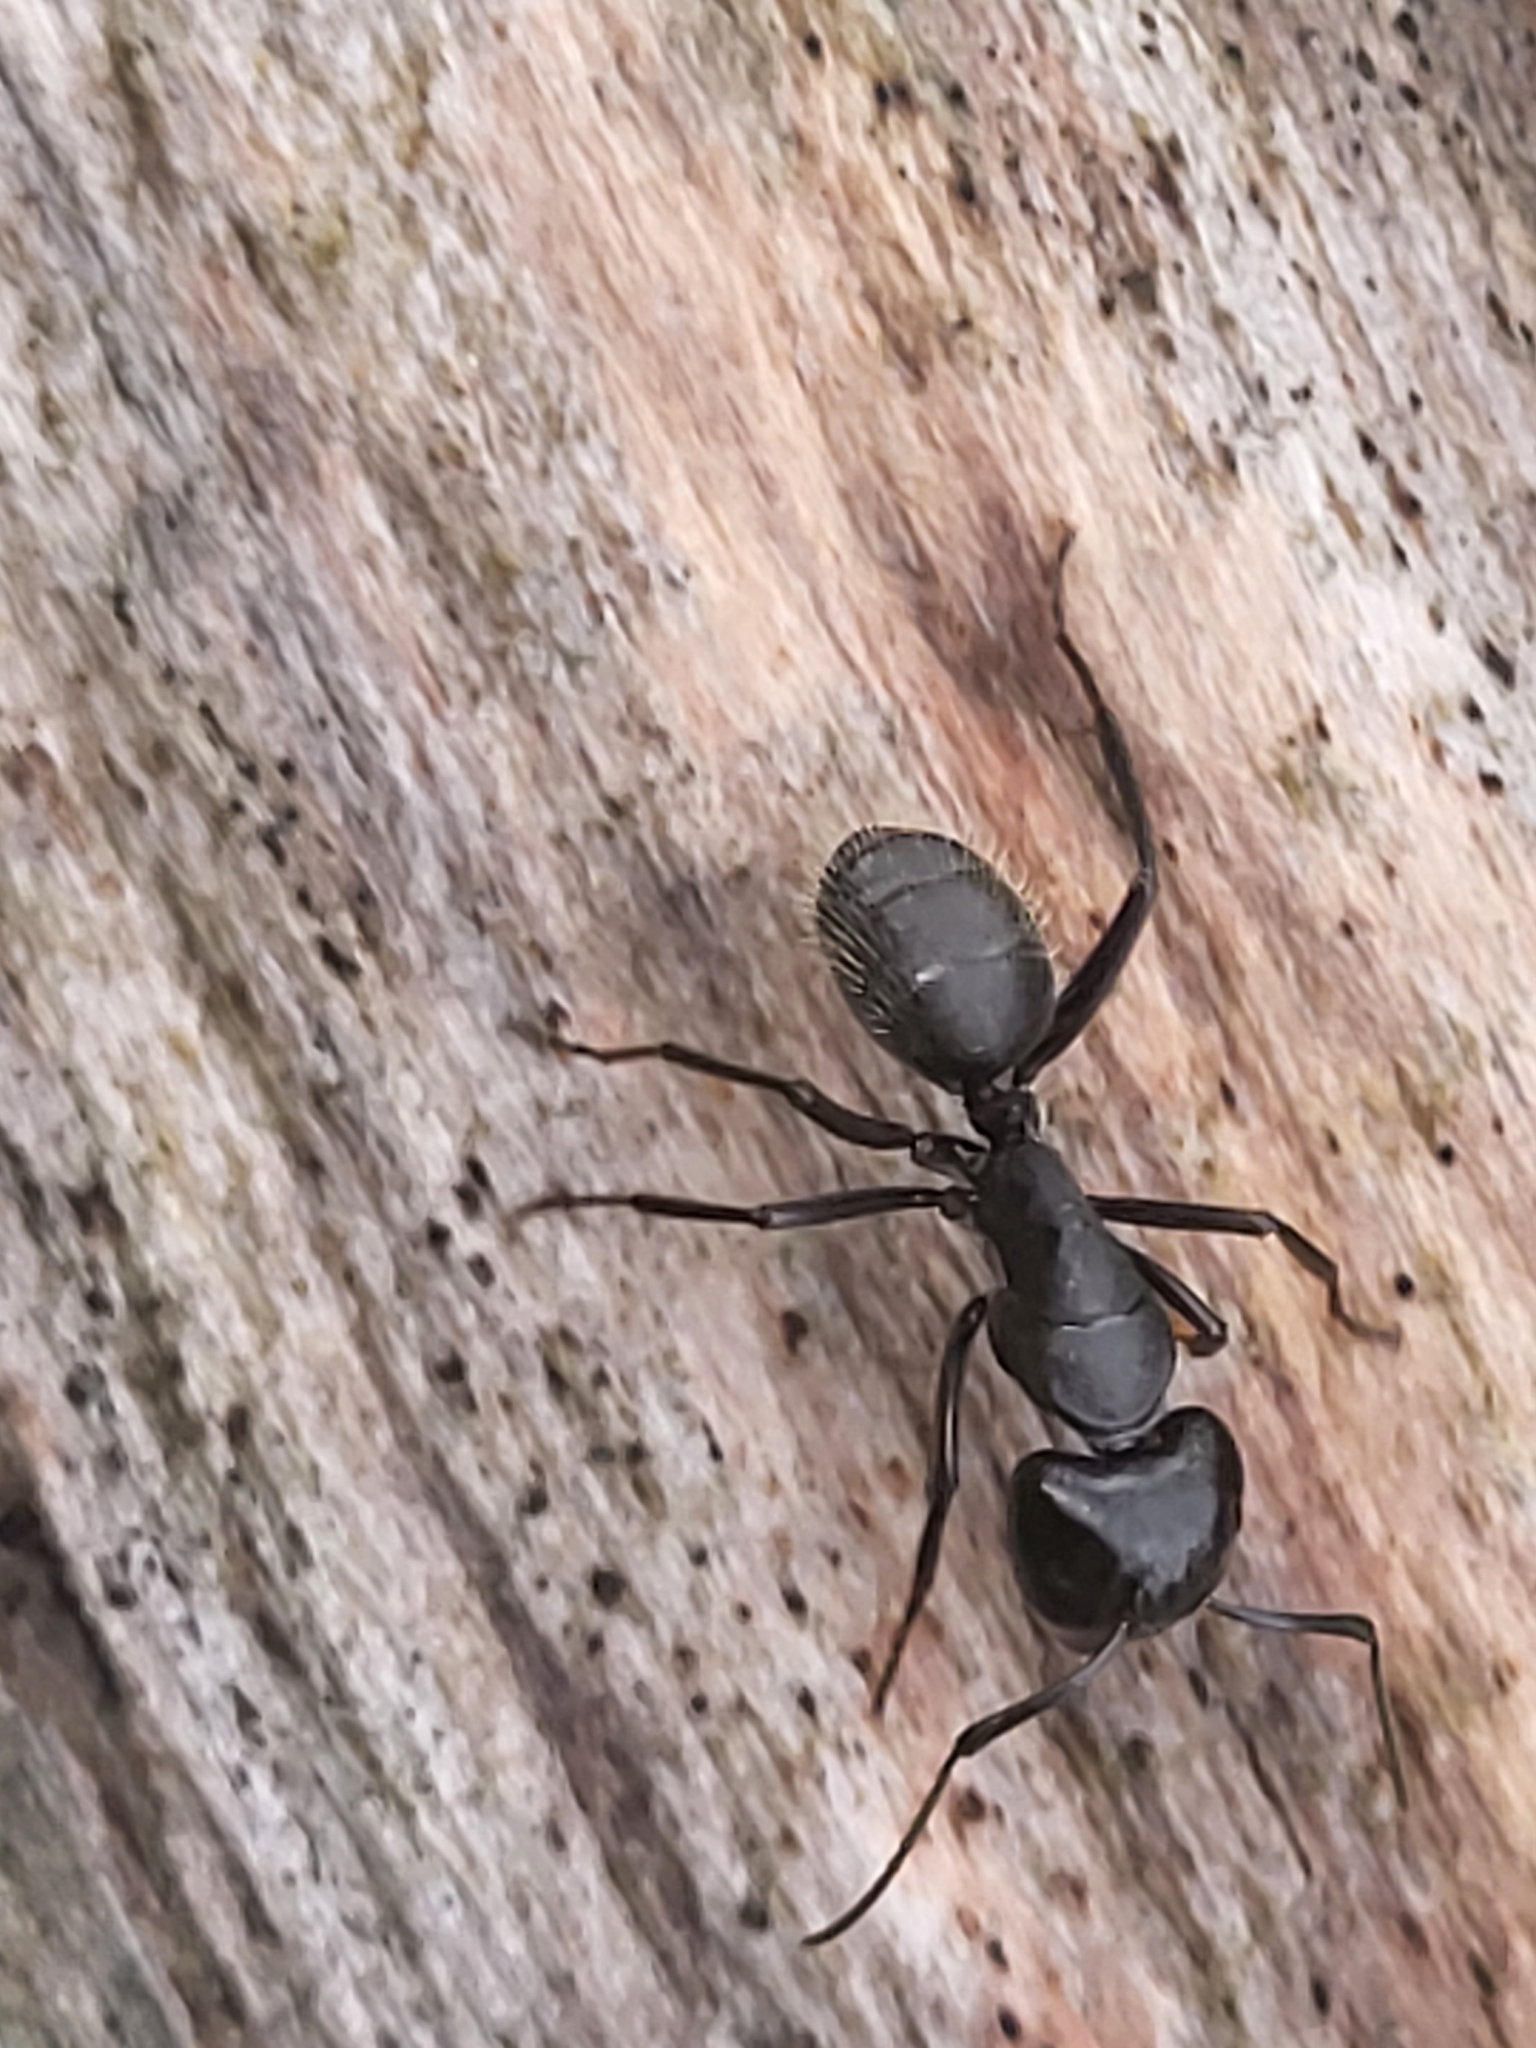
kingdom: Animalia
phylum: Arthropoda
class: Insecta
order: Hymenoptera
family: Formicidae
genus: Camponotus
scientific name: Camponotus vagus
